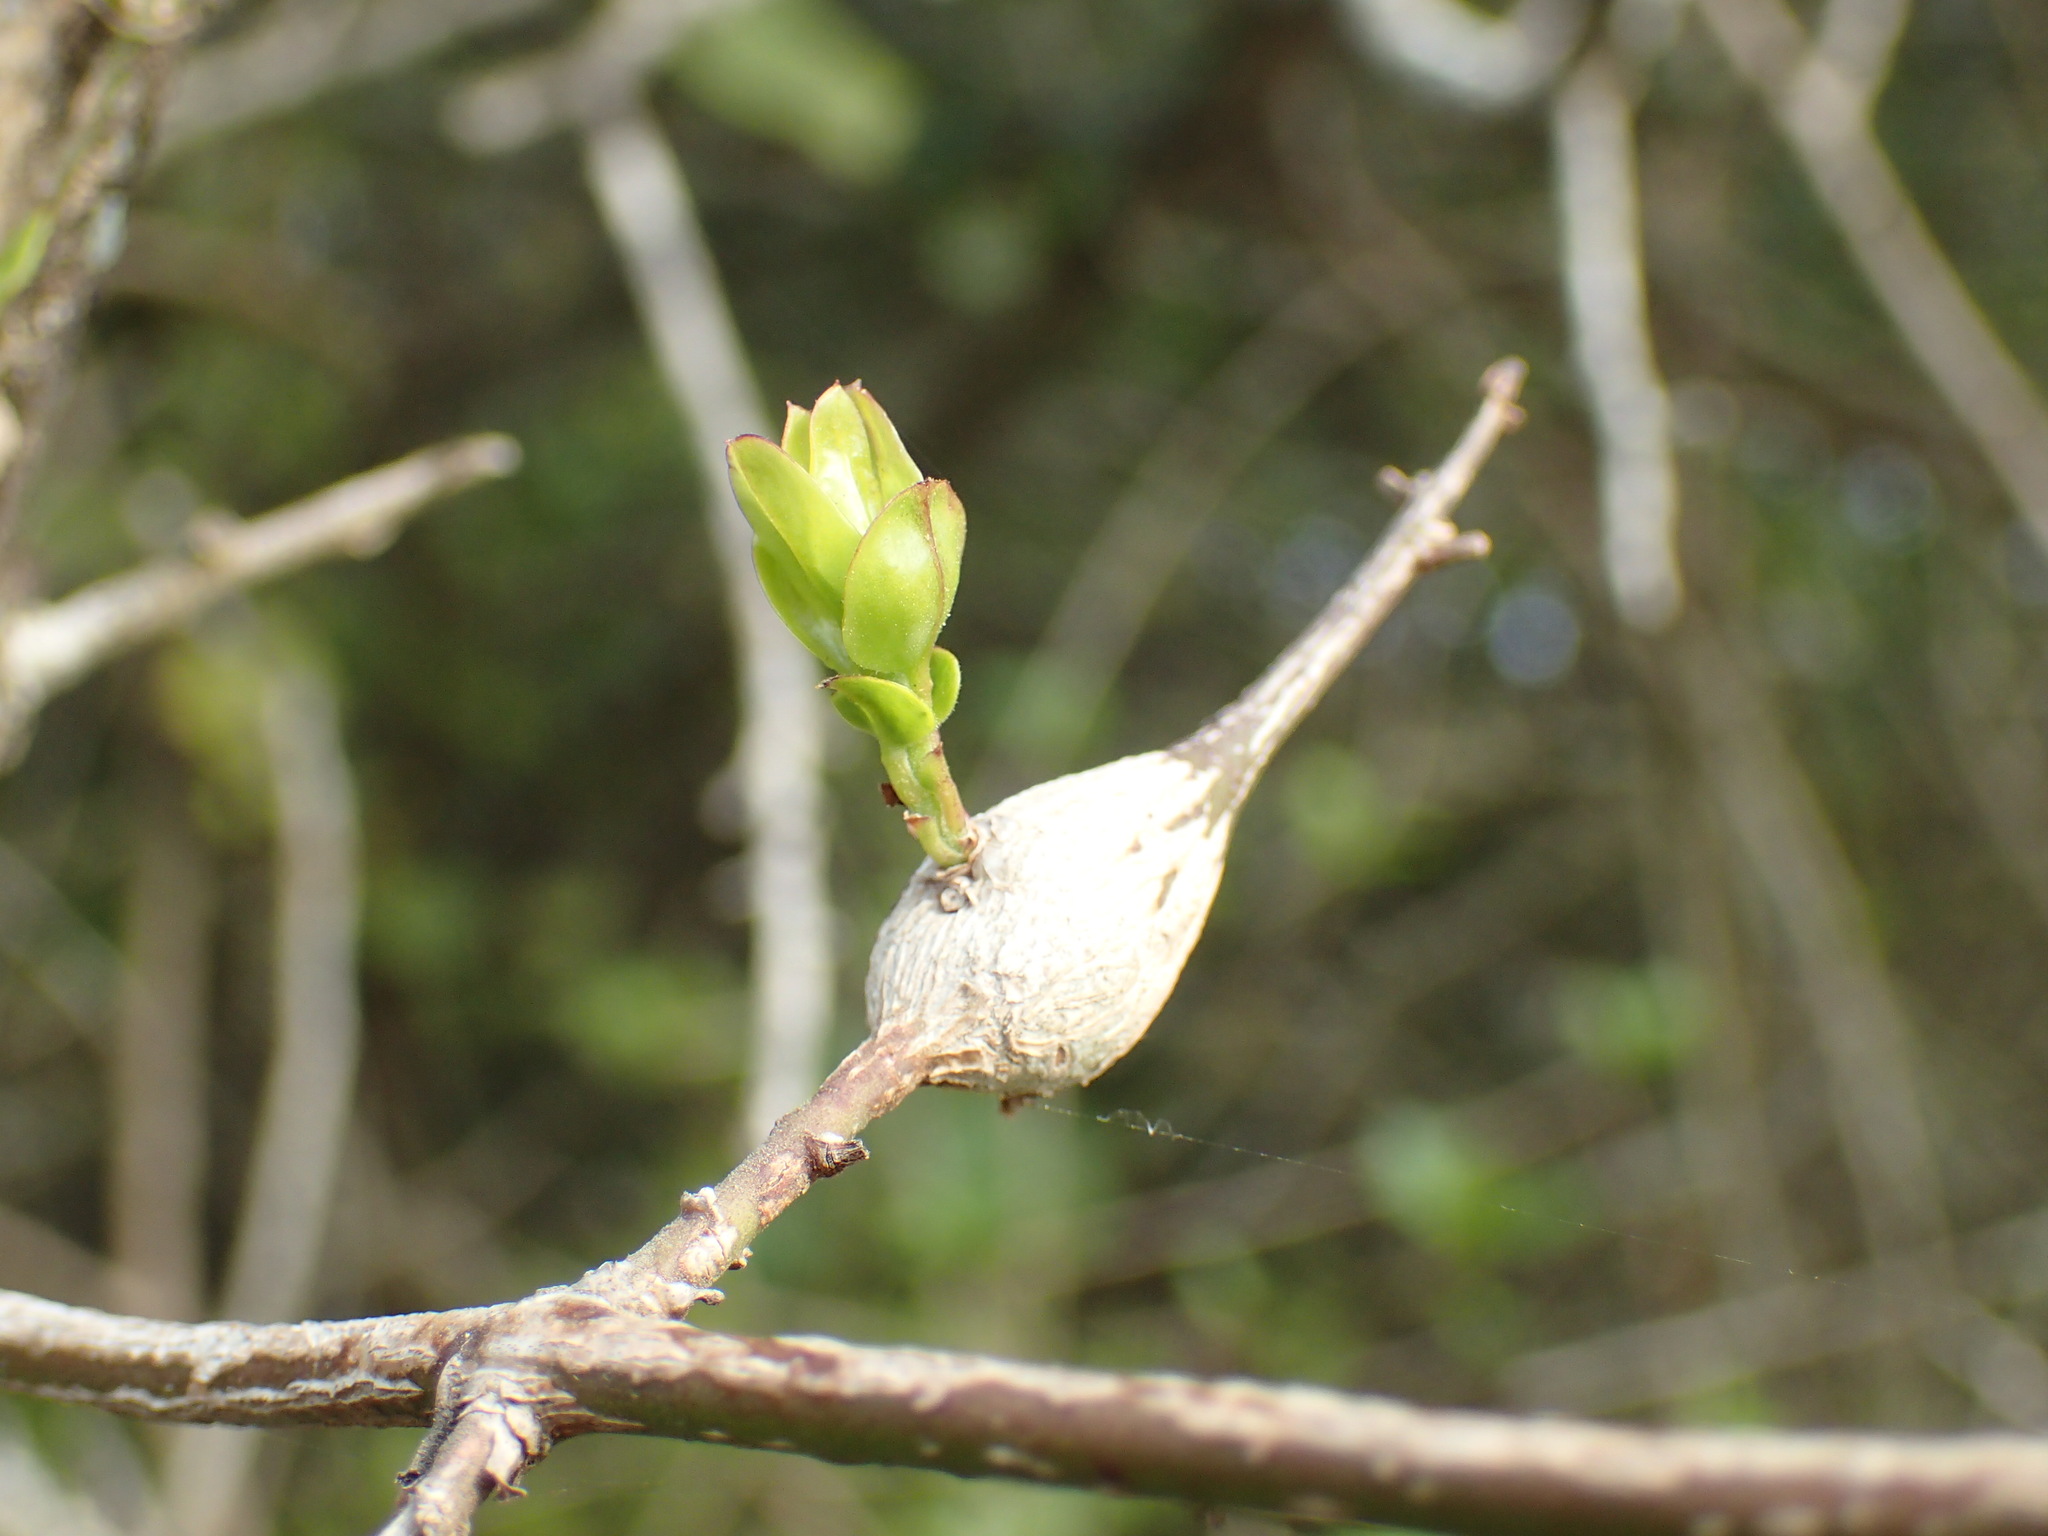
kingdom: Plantae
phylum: Tracheophyta
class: Magnoliopsida
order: Lamiales
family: Oleaceae
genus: Jasminum
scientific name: Jasminum multipartitum
